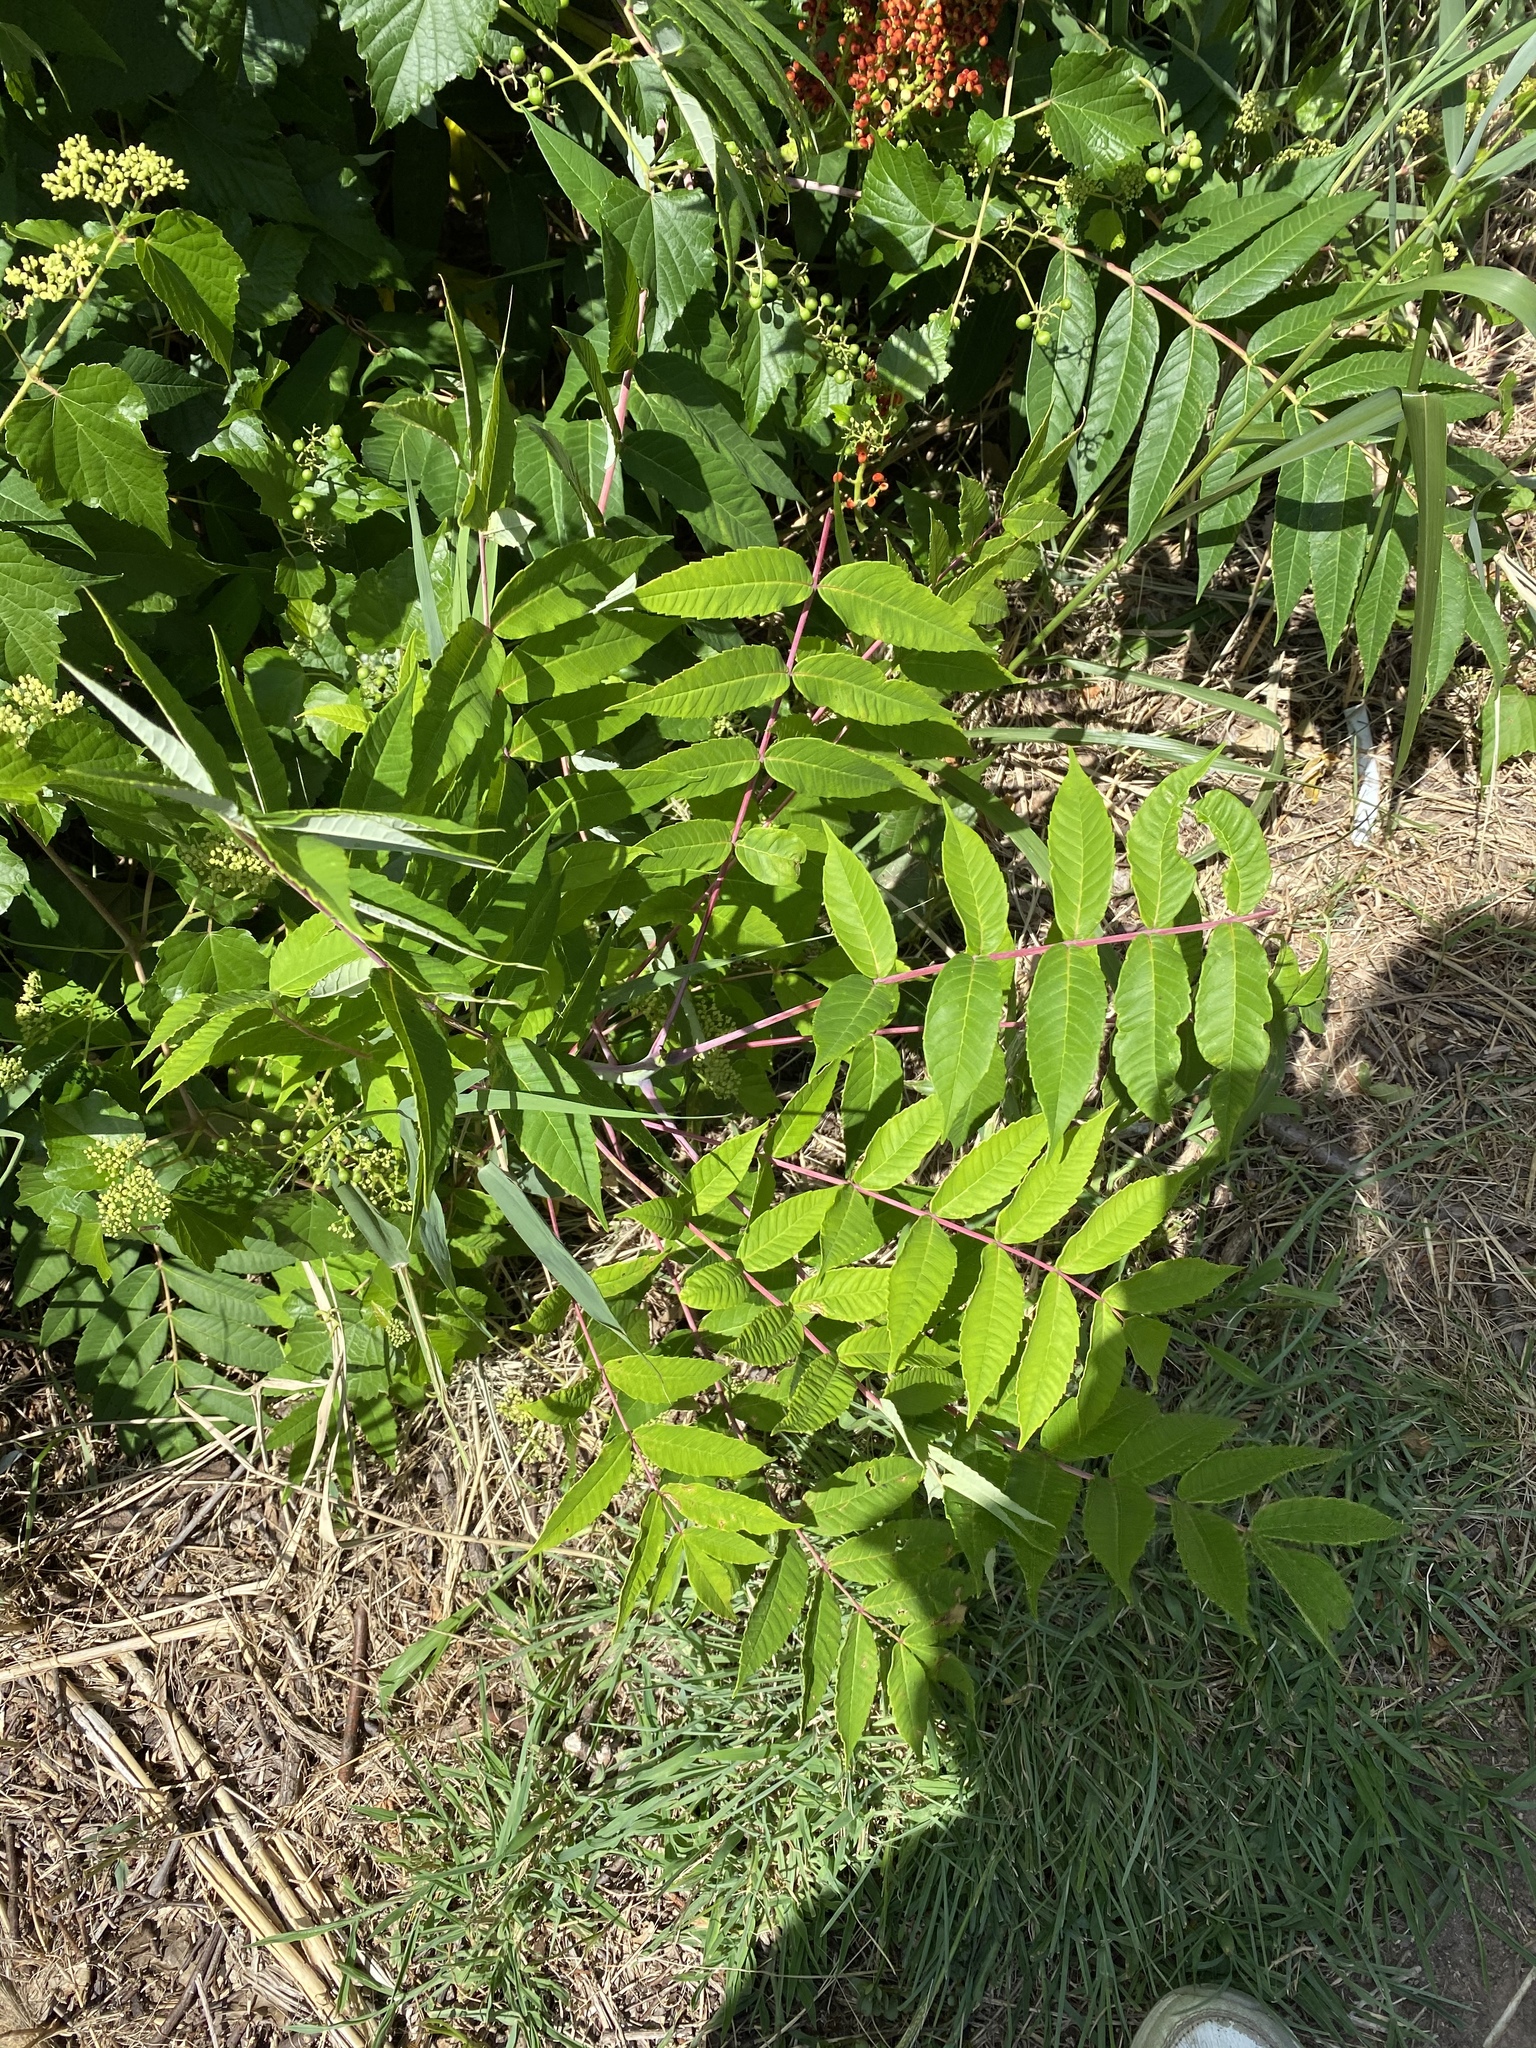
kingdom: Plantae
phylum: Tracheophyta
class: Magnoliopsida
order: Sapindales
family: Anacardiaceae
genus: Rhus
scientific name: Rhus glabra
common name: Scarlet sumac
